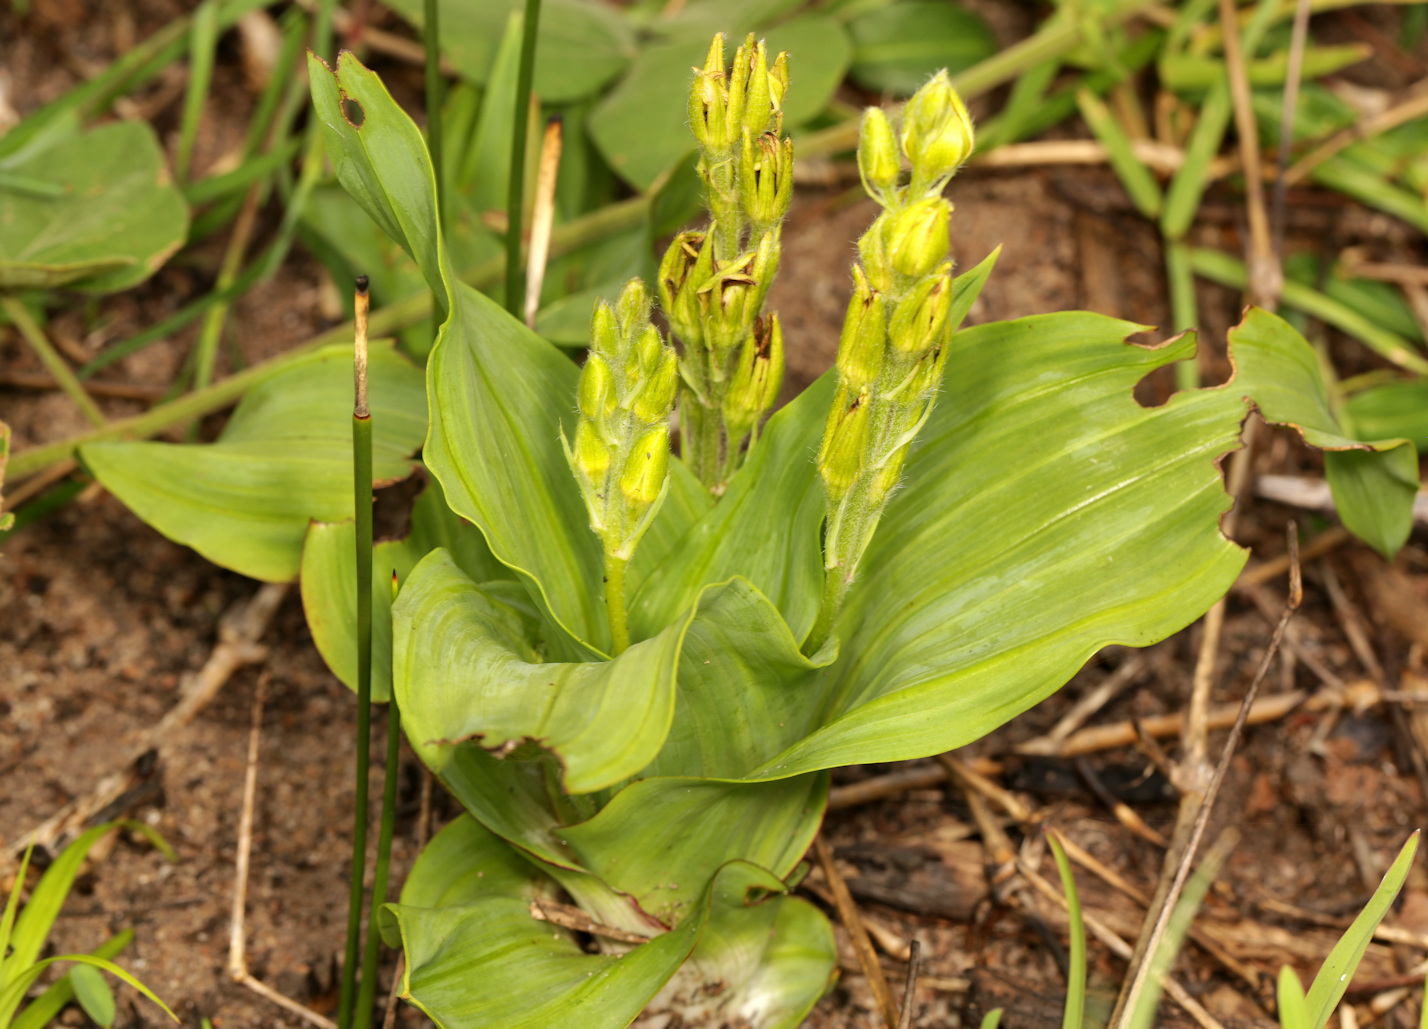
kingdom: Plantae
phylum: Tracheophyta
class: Liliopsida
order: Asparagales
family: Hypoxidaceae
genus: Hypoxis
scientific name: Hypoxis colchicifolia
